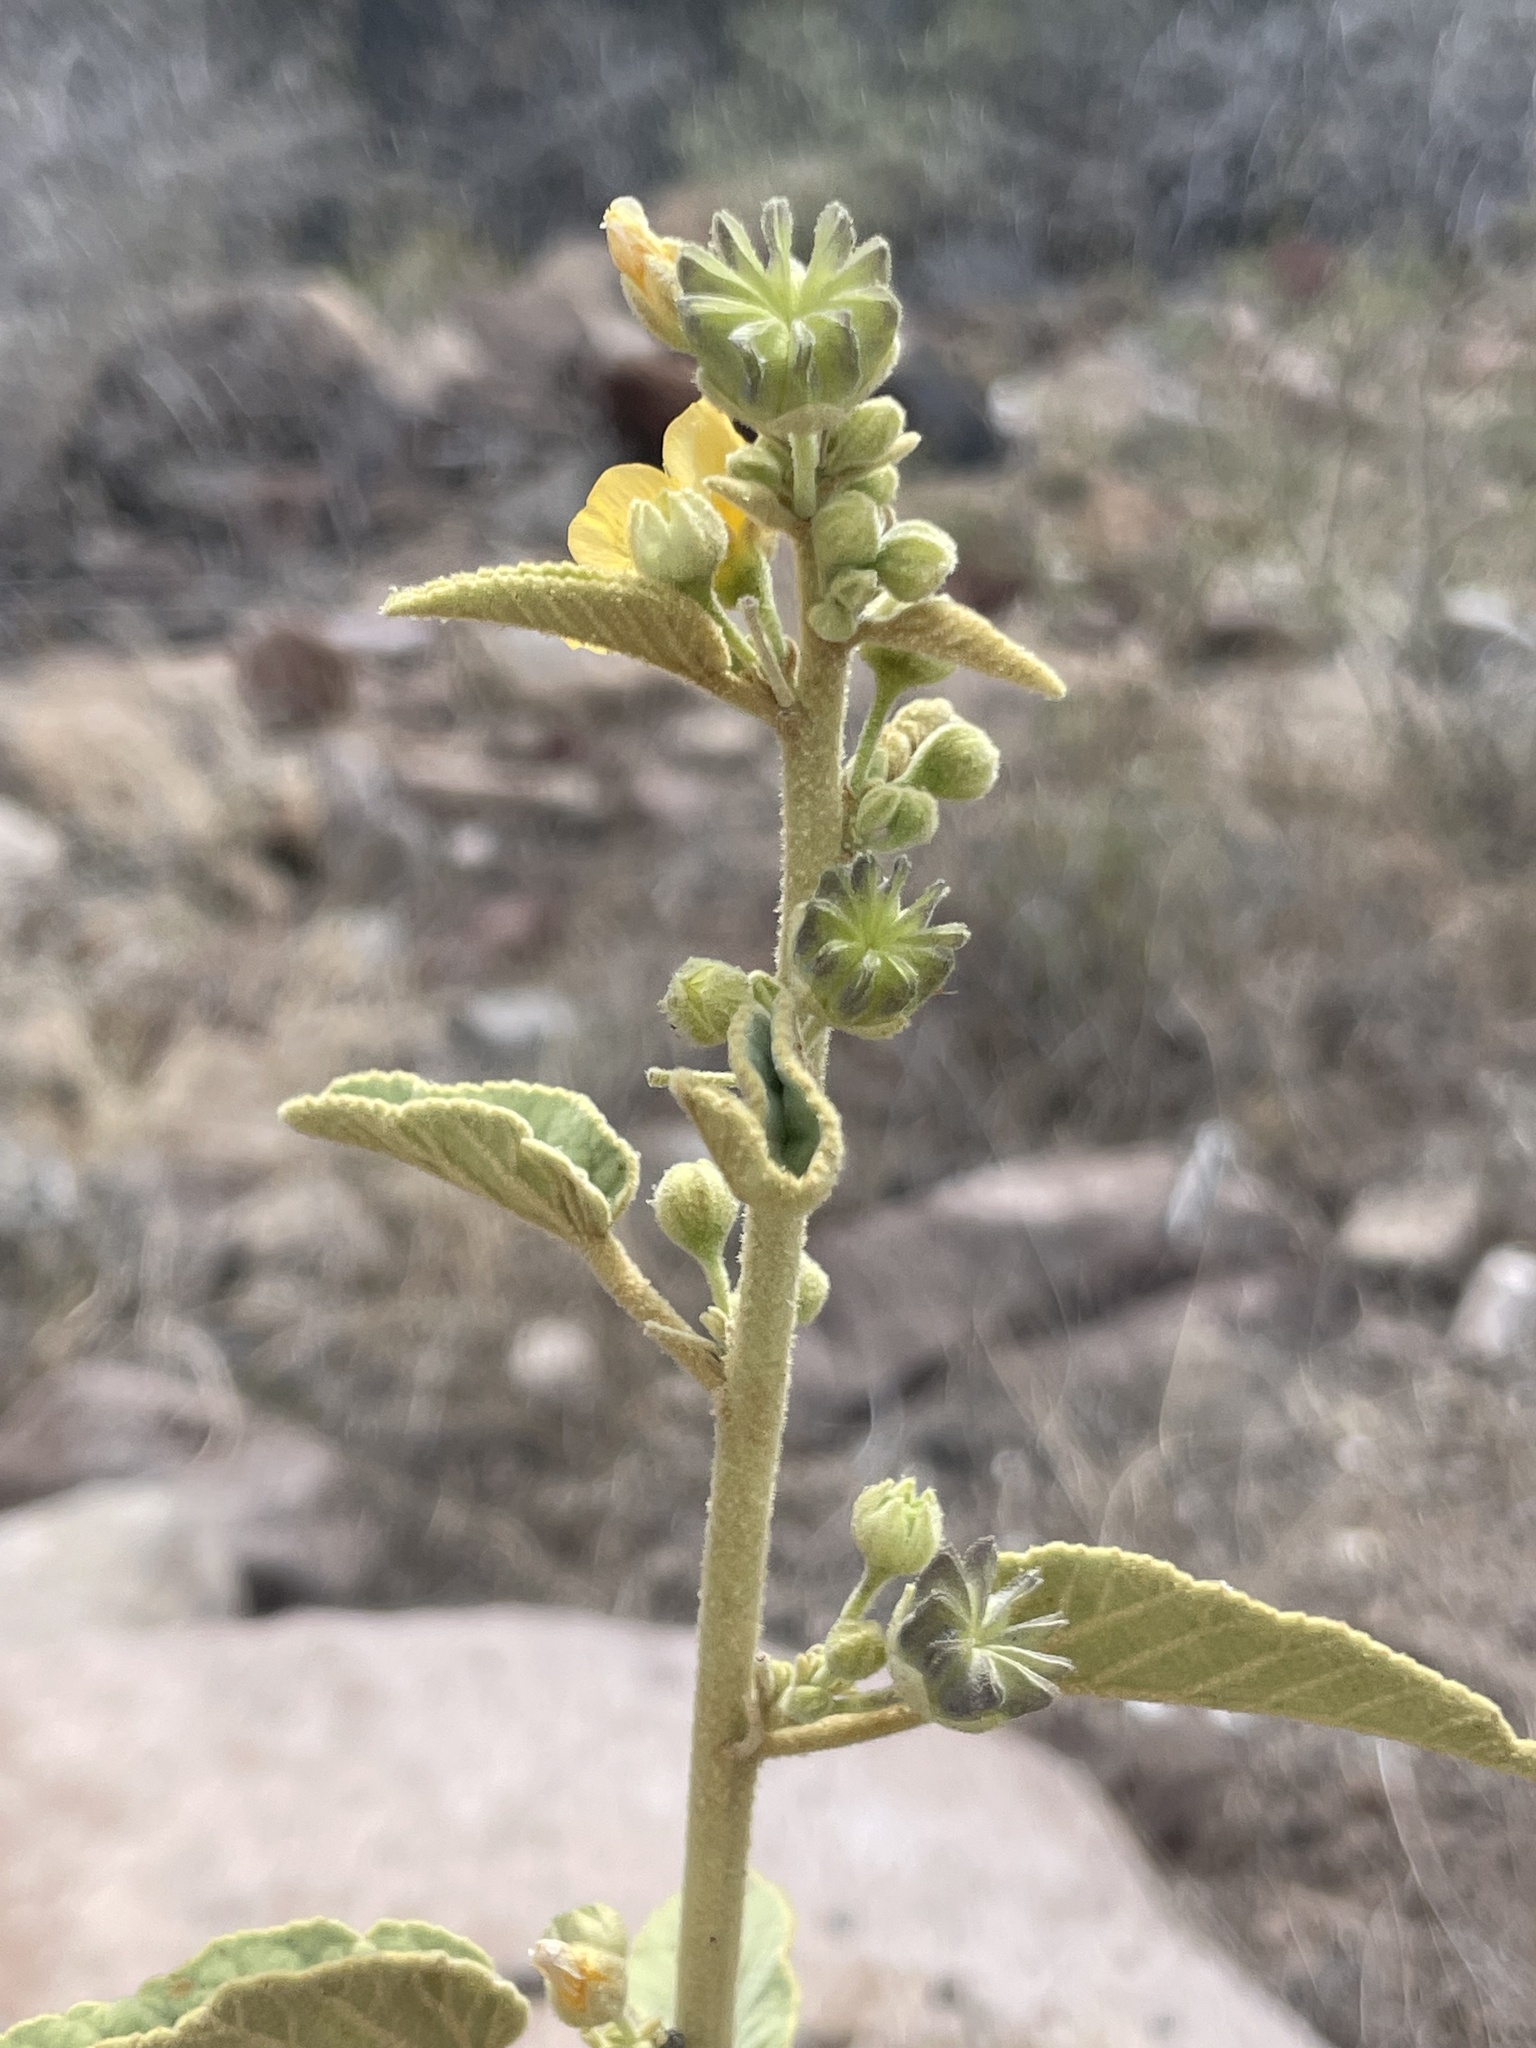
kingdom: Plantae
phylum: Tracheophyta
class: Magnoliopsida
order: Malvales
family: Malvaceae
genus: Horsfordia
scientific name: Horsfordia newberryi
